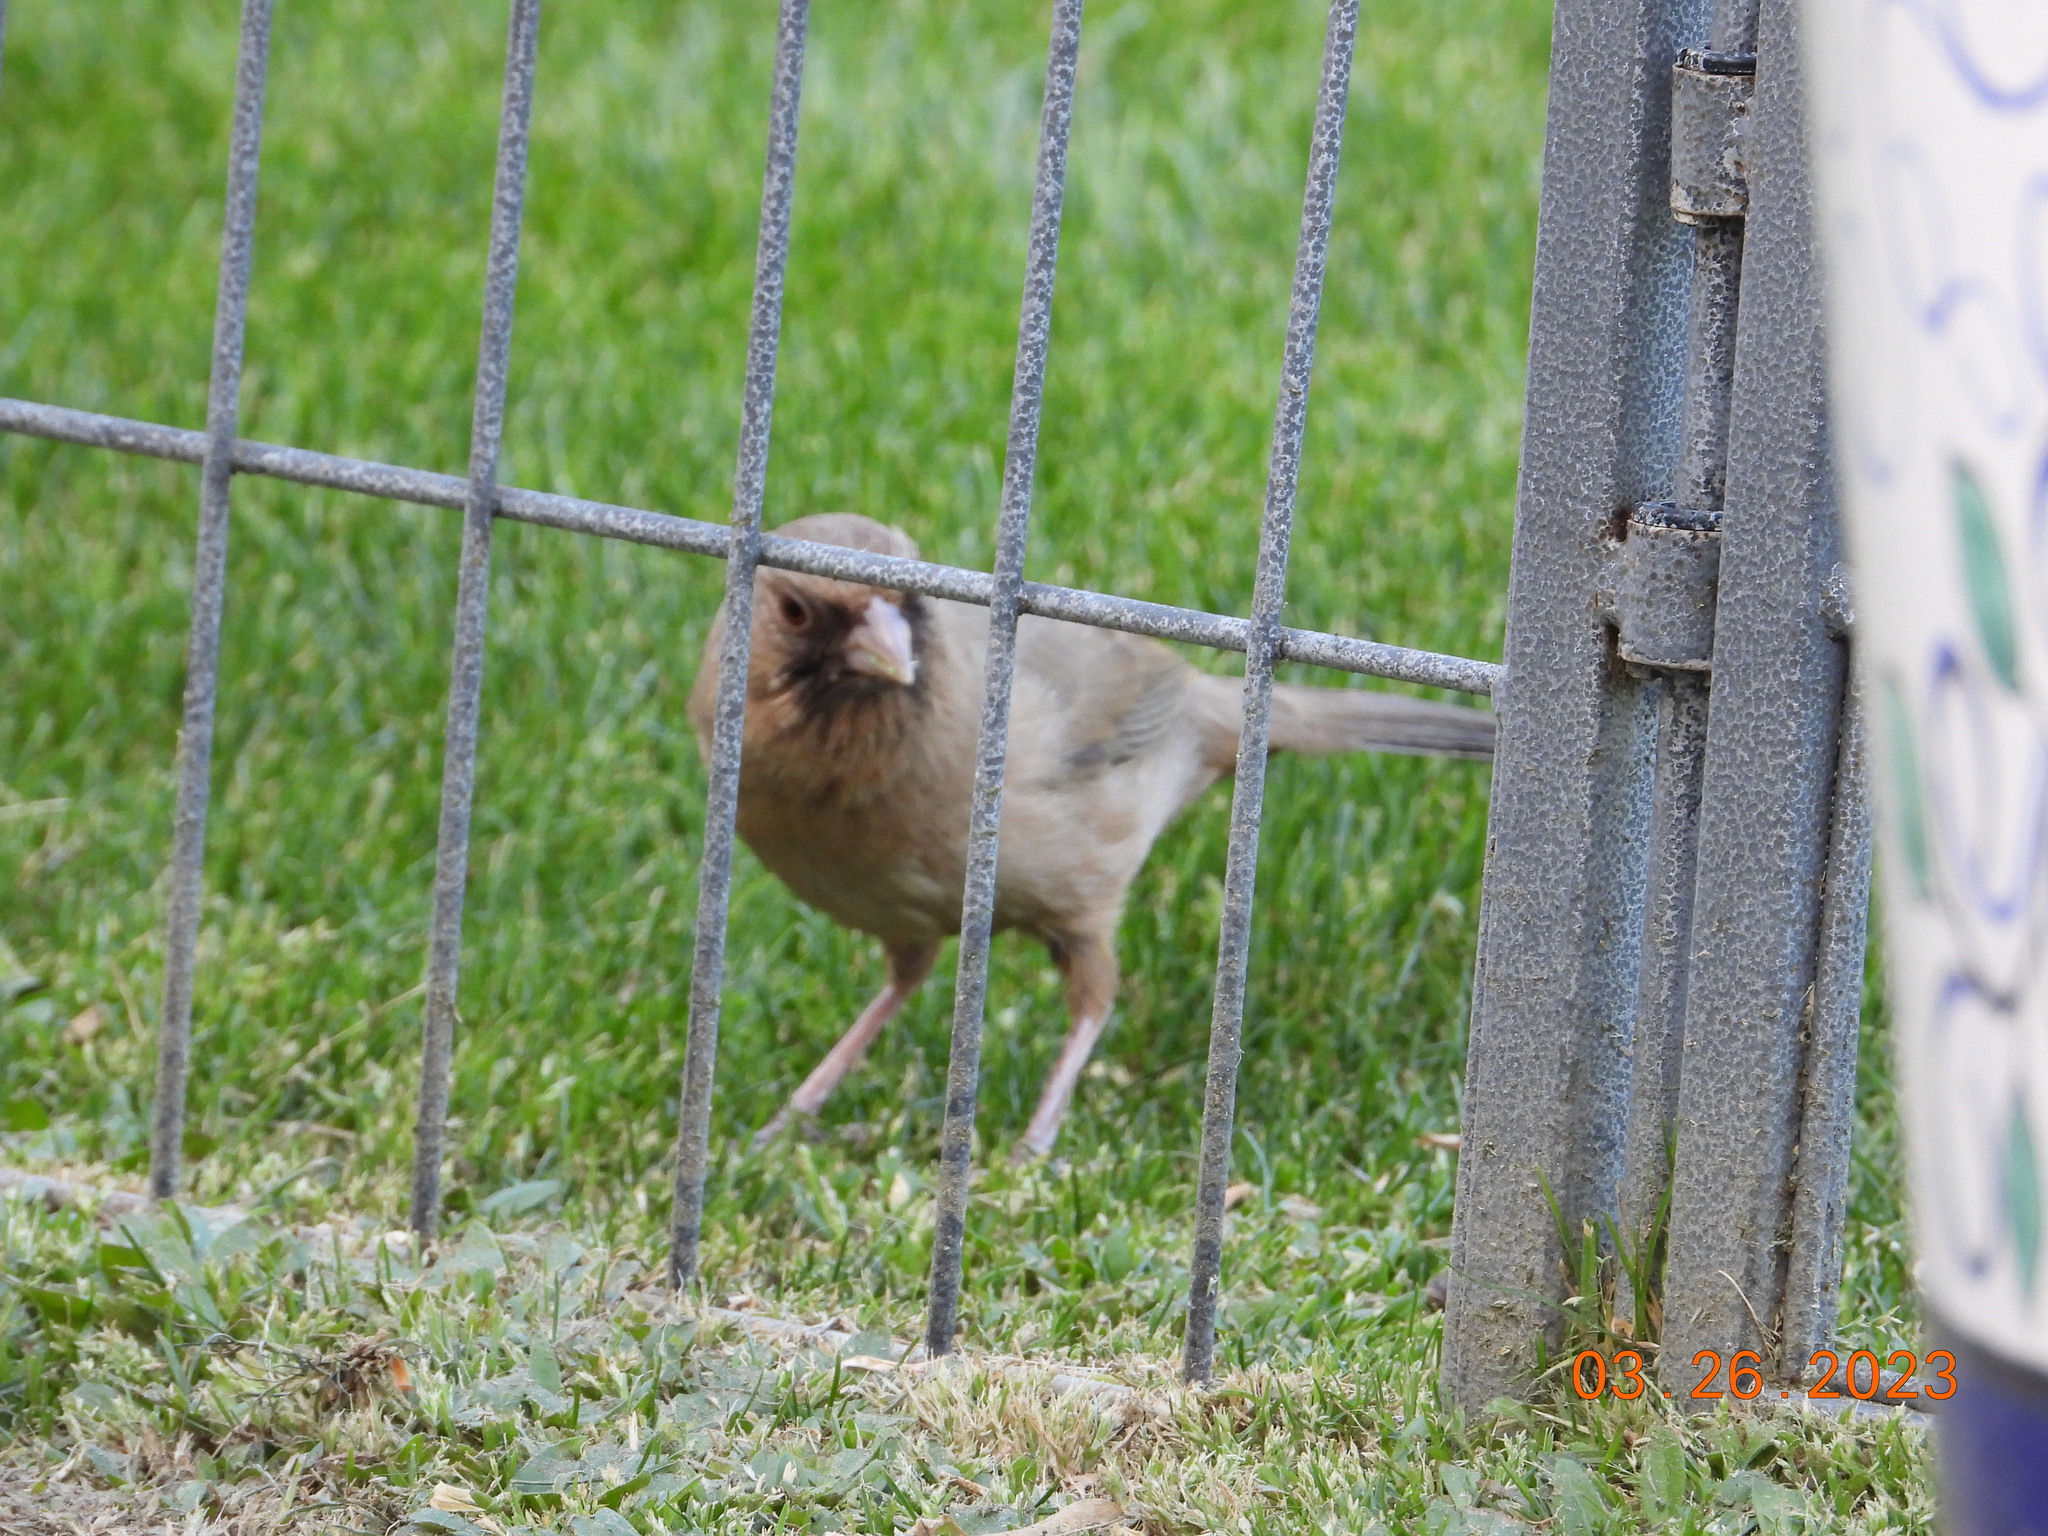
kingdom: Animalia
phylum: Chordata
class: Aves
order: Passeriformes
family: Passerellidae
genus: Melozone
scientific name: Melozone aberti
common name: Abert's towhee
